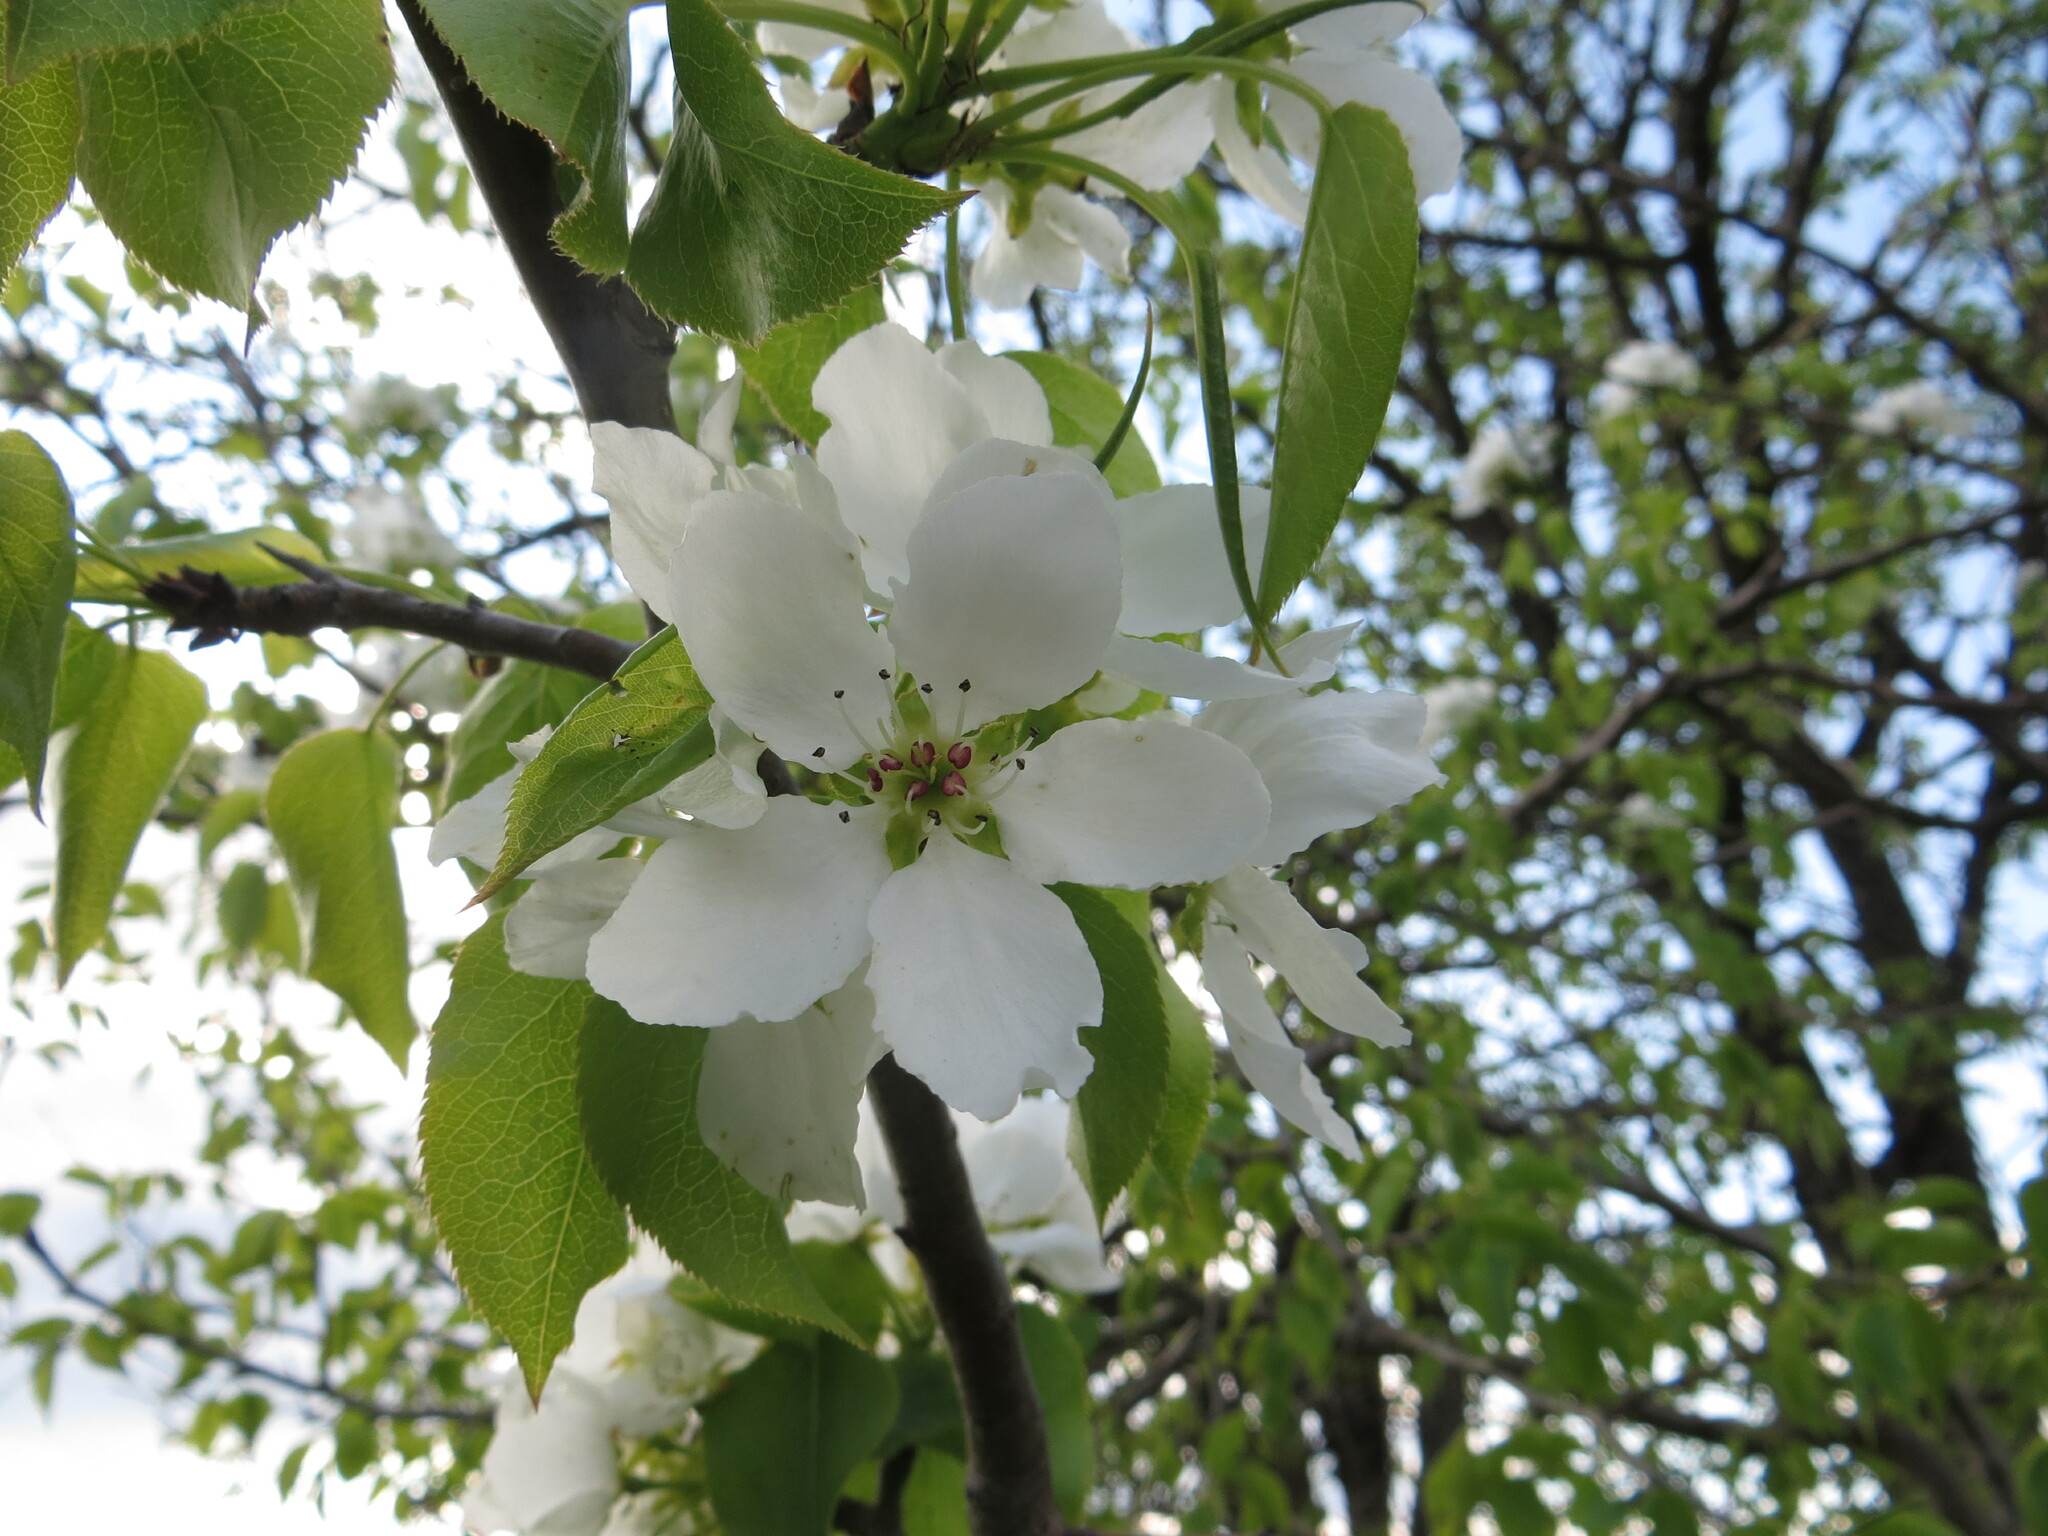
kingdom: Plantae
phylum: Tracheophyta
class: Magnoliopsida
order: Rosales
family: Rosaceae
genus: Pyrus
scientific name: Pyrus communis
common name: Pear
